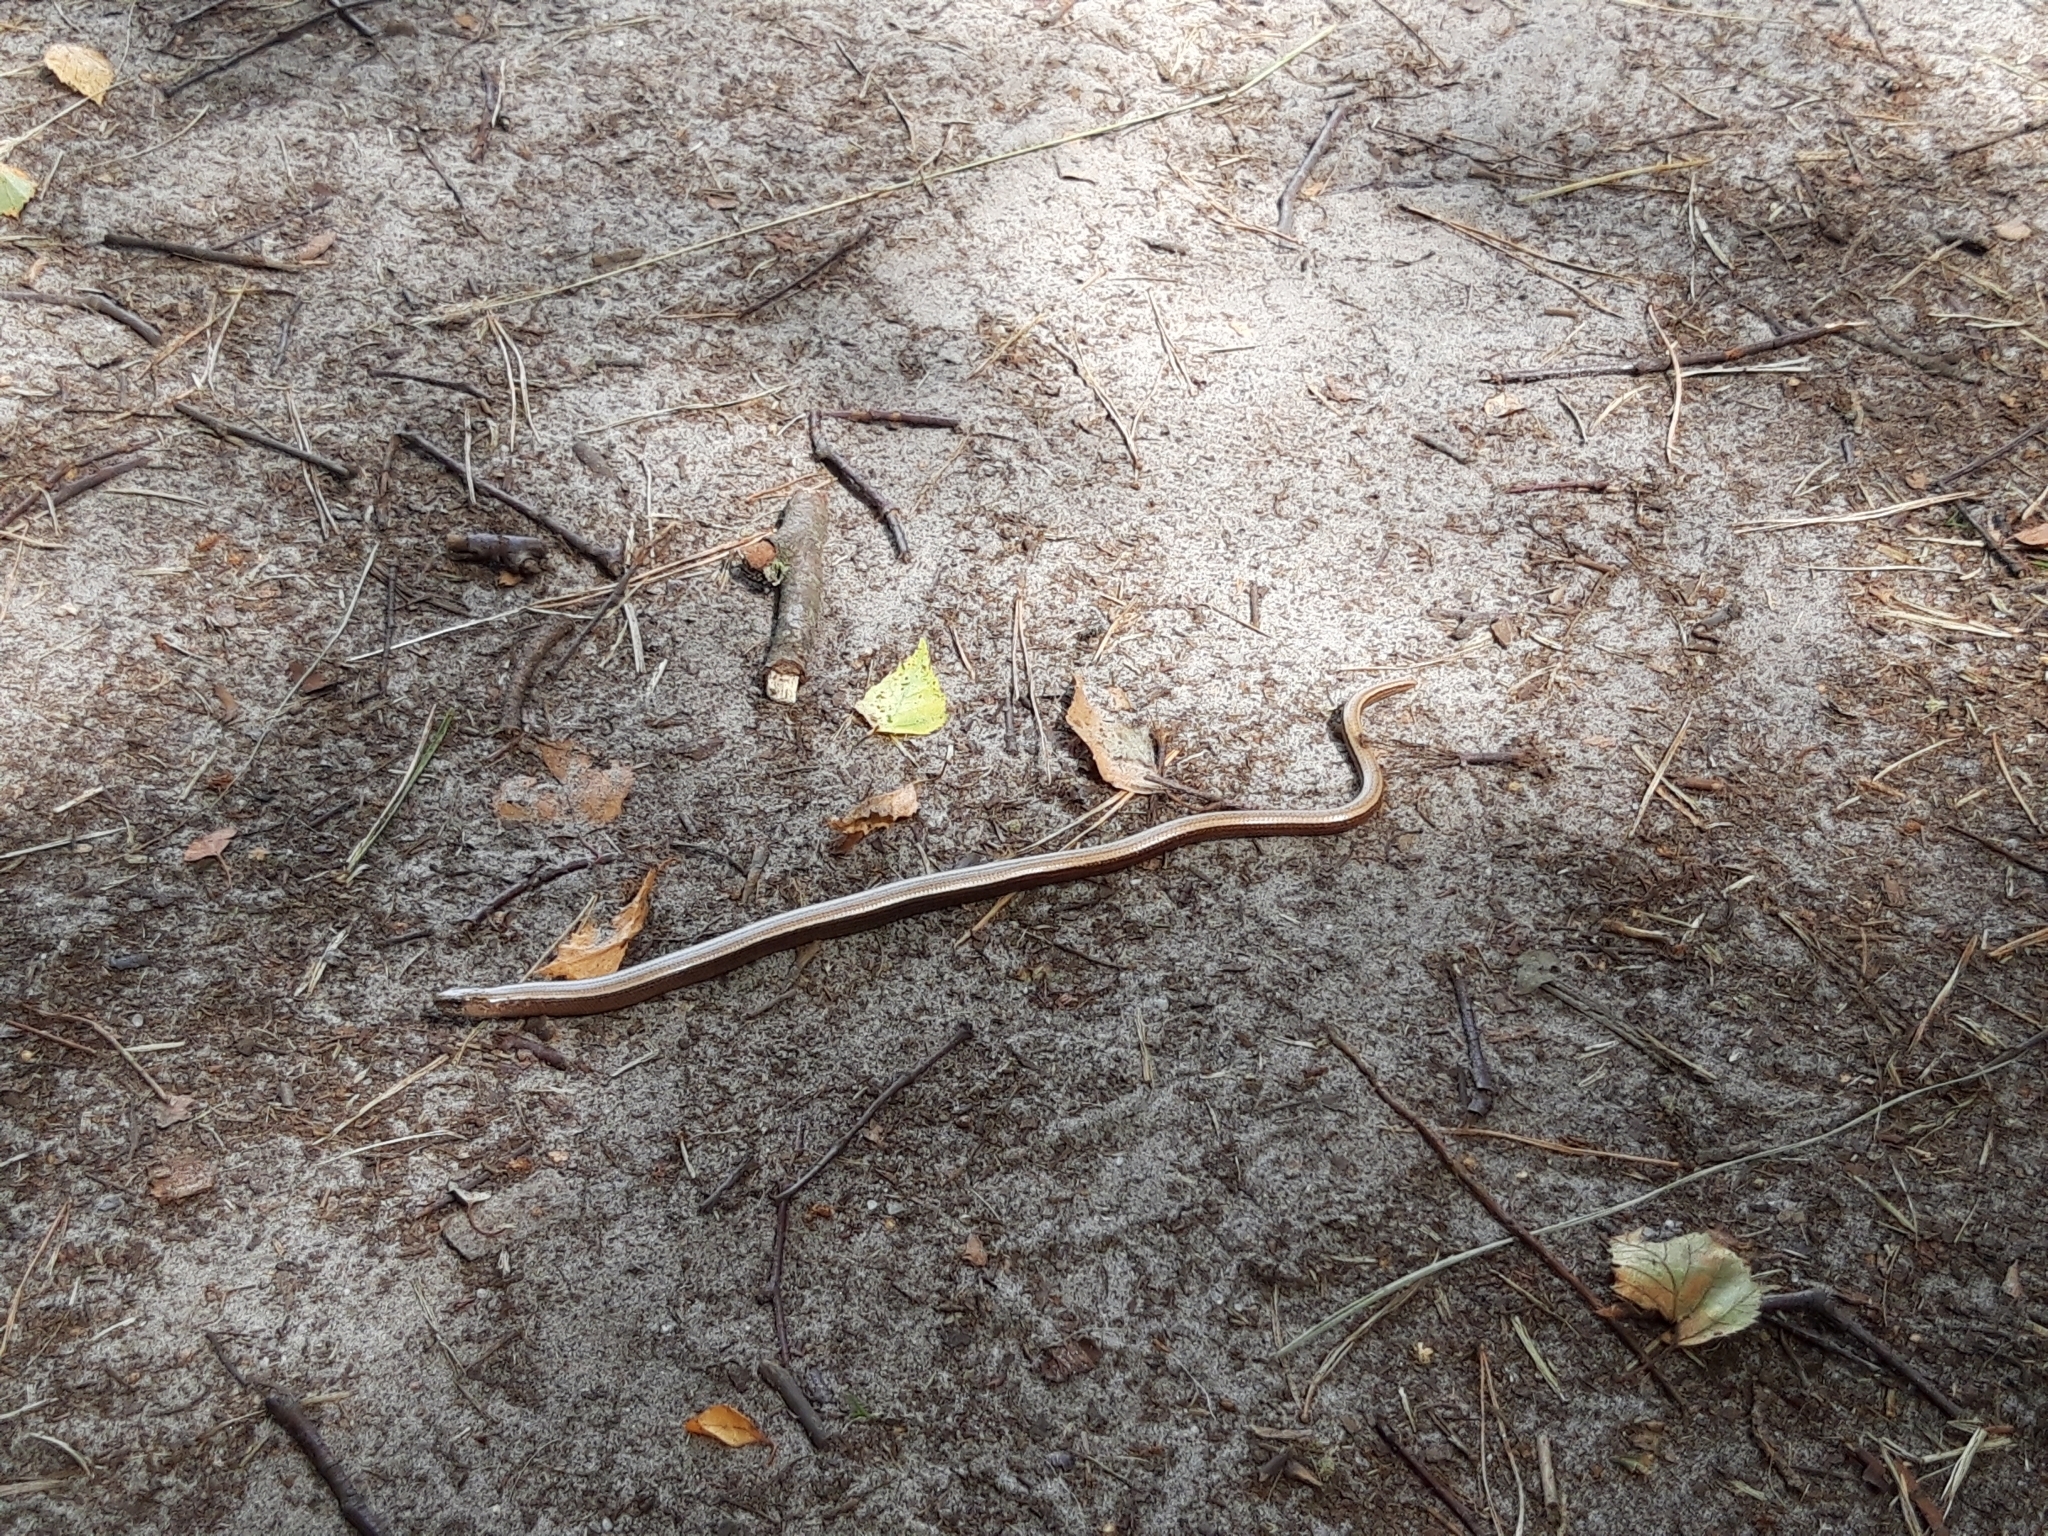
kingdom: Animalia
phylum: Chordata
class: Squamata
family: Anguidae
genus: Anguis
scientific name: Anguis fragilis
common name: Slow worm
